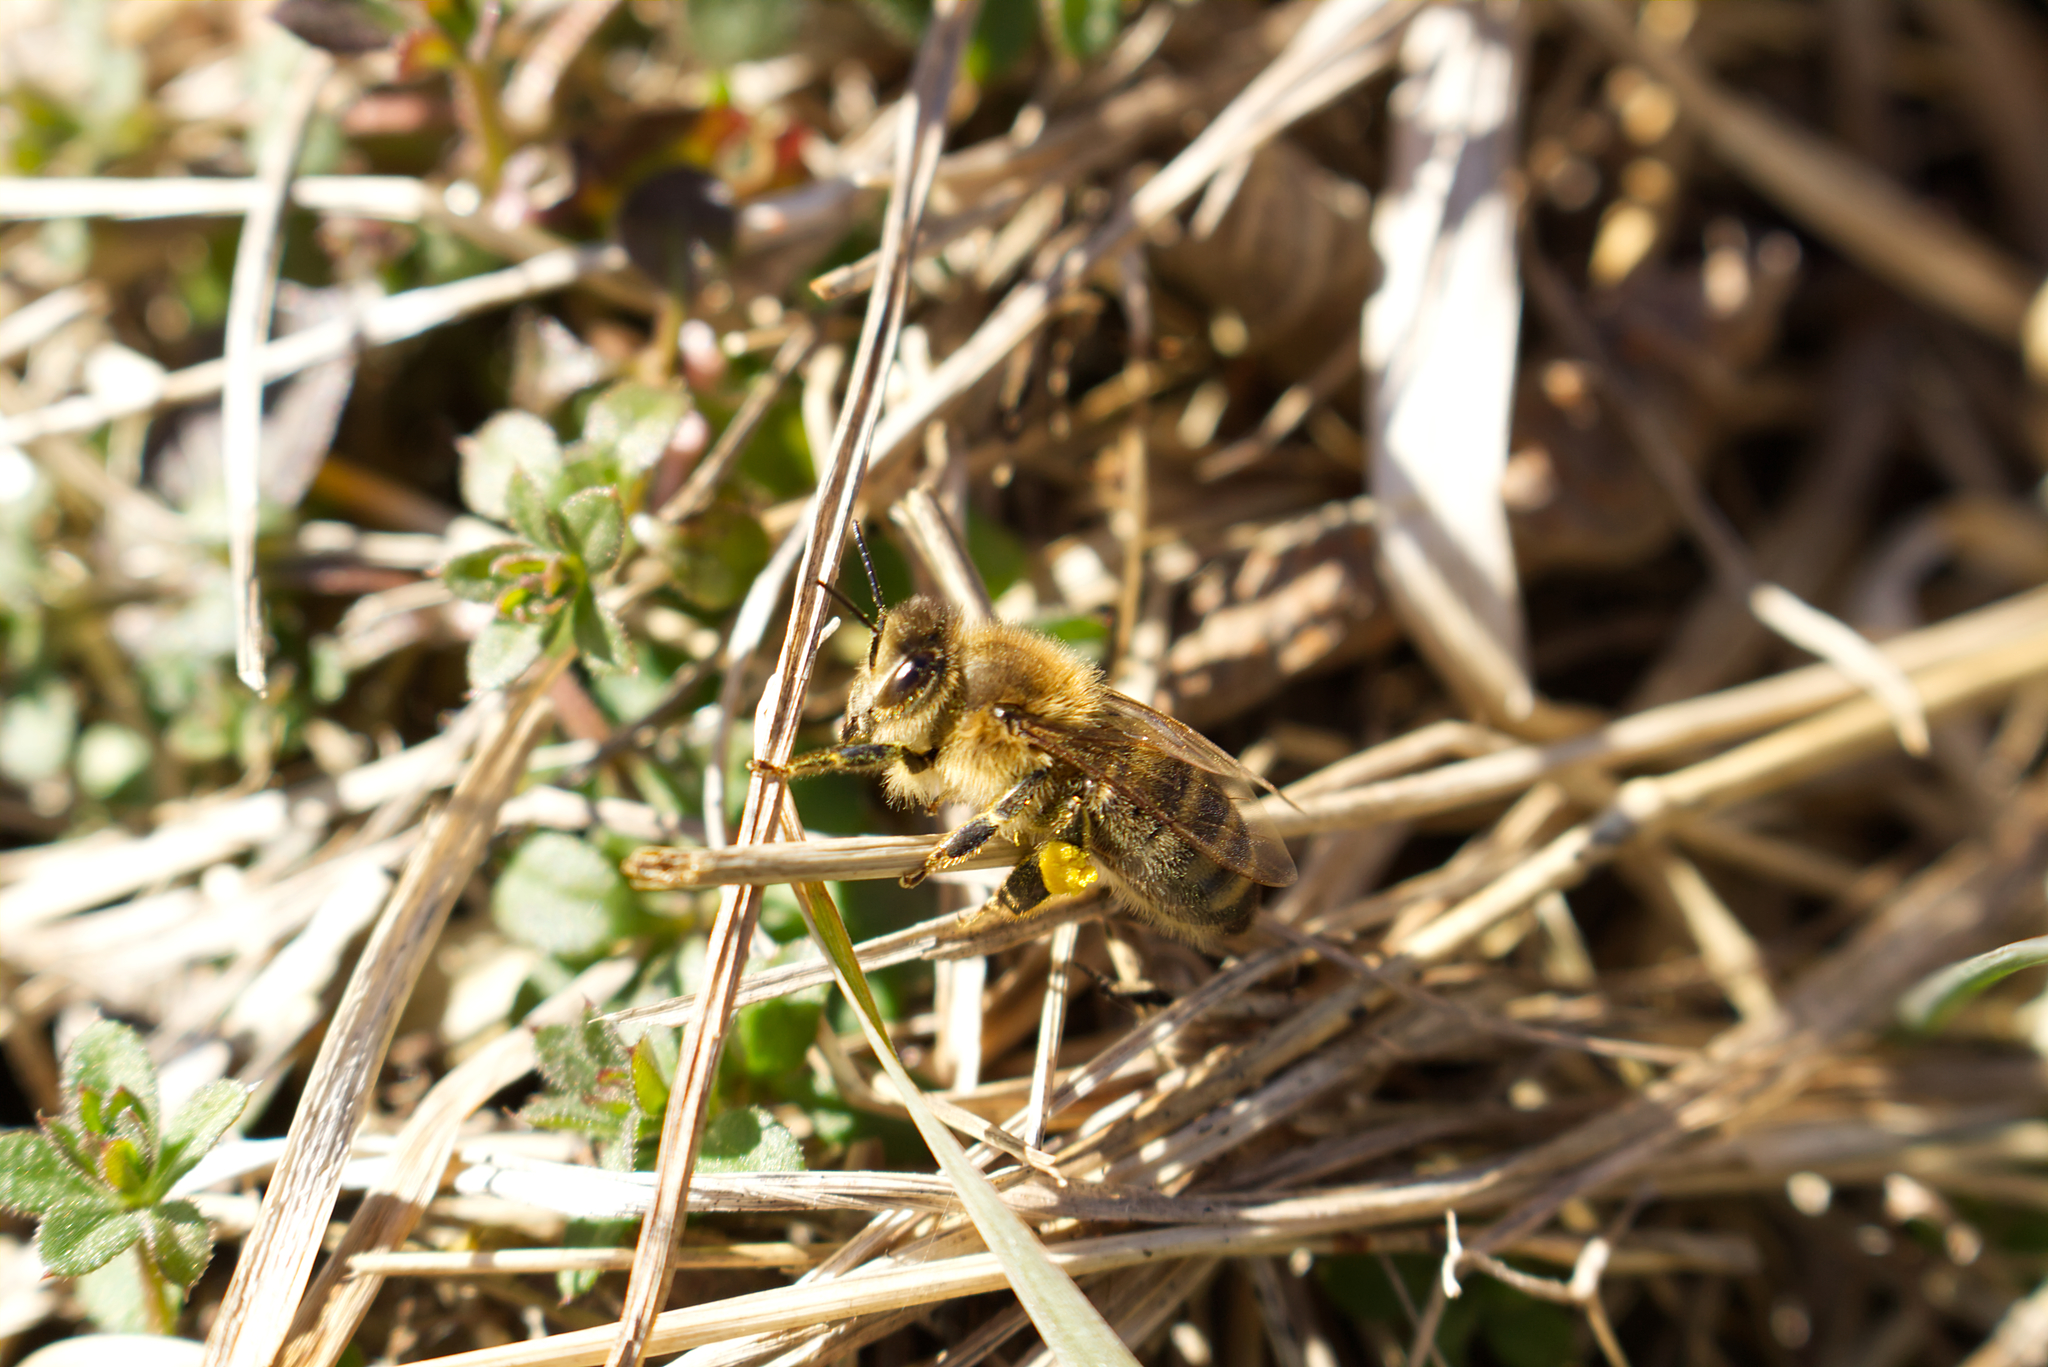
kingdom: Animalia
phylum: Arthropoda
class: Insecta
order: Hymenoptera
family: Apidae
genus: Apis
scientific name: Apis mellifera
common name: Honey bee
